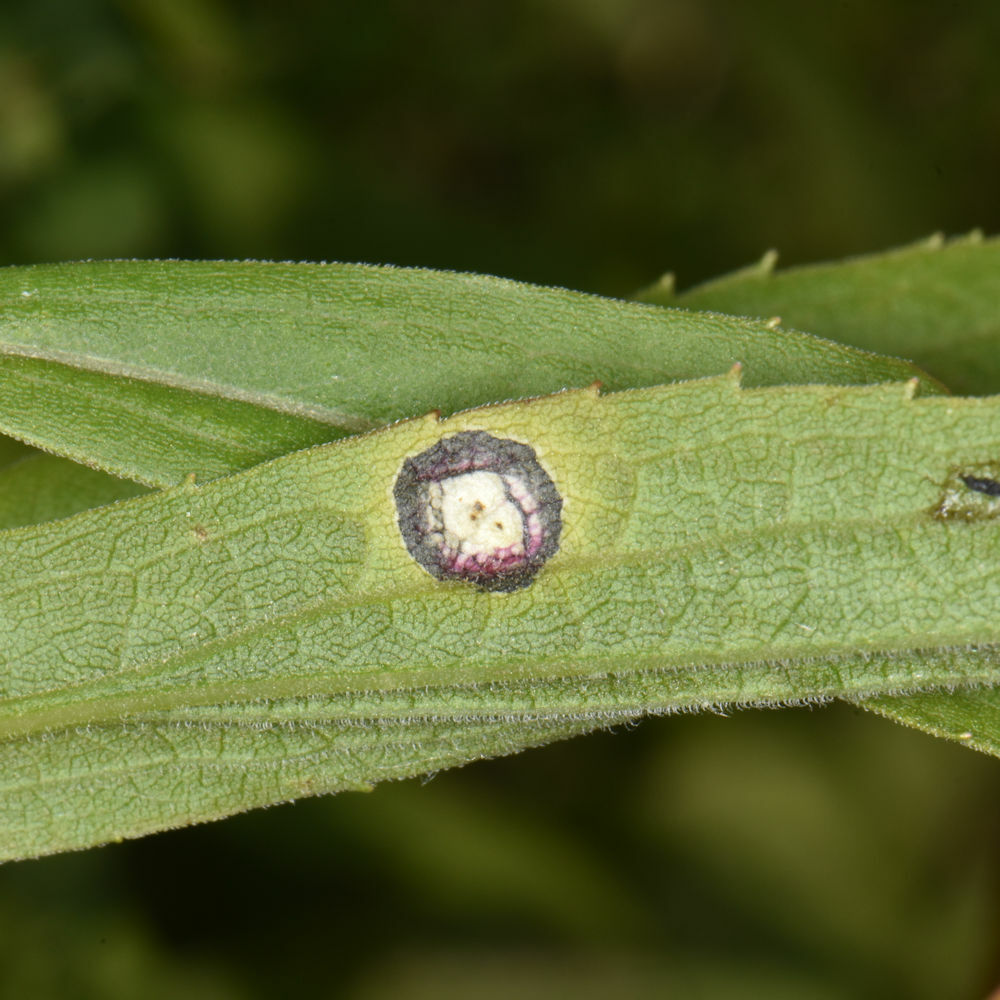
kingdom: Animalia
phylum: Arthropoda
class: Insecta
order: Diptera
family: Cecidomyiidae
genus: Asteromyia
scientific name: Asteromyia carbonifera
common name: Carbonifera goldenrod gall midge
